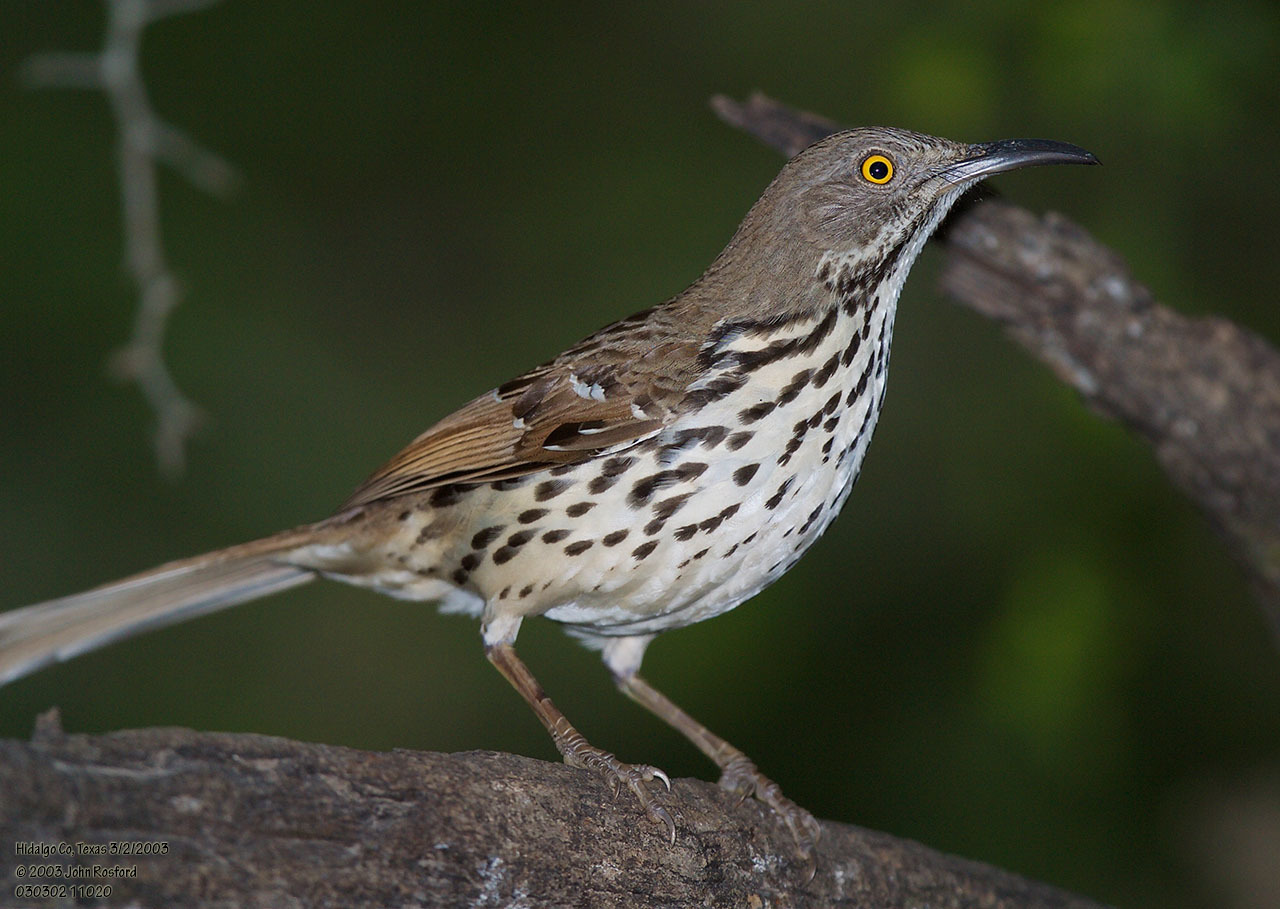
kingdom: Animalia
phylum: Chordata
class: Aves
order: Passeriformes
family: Mimidae
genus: Toxostoma
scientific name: Toxostoma longirostre
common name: Long-billed thrasher
